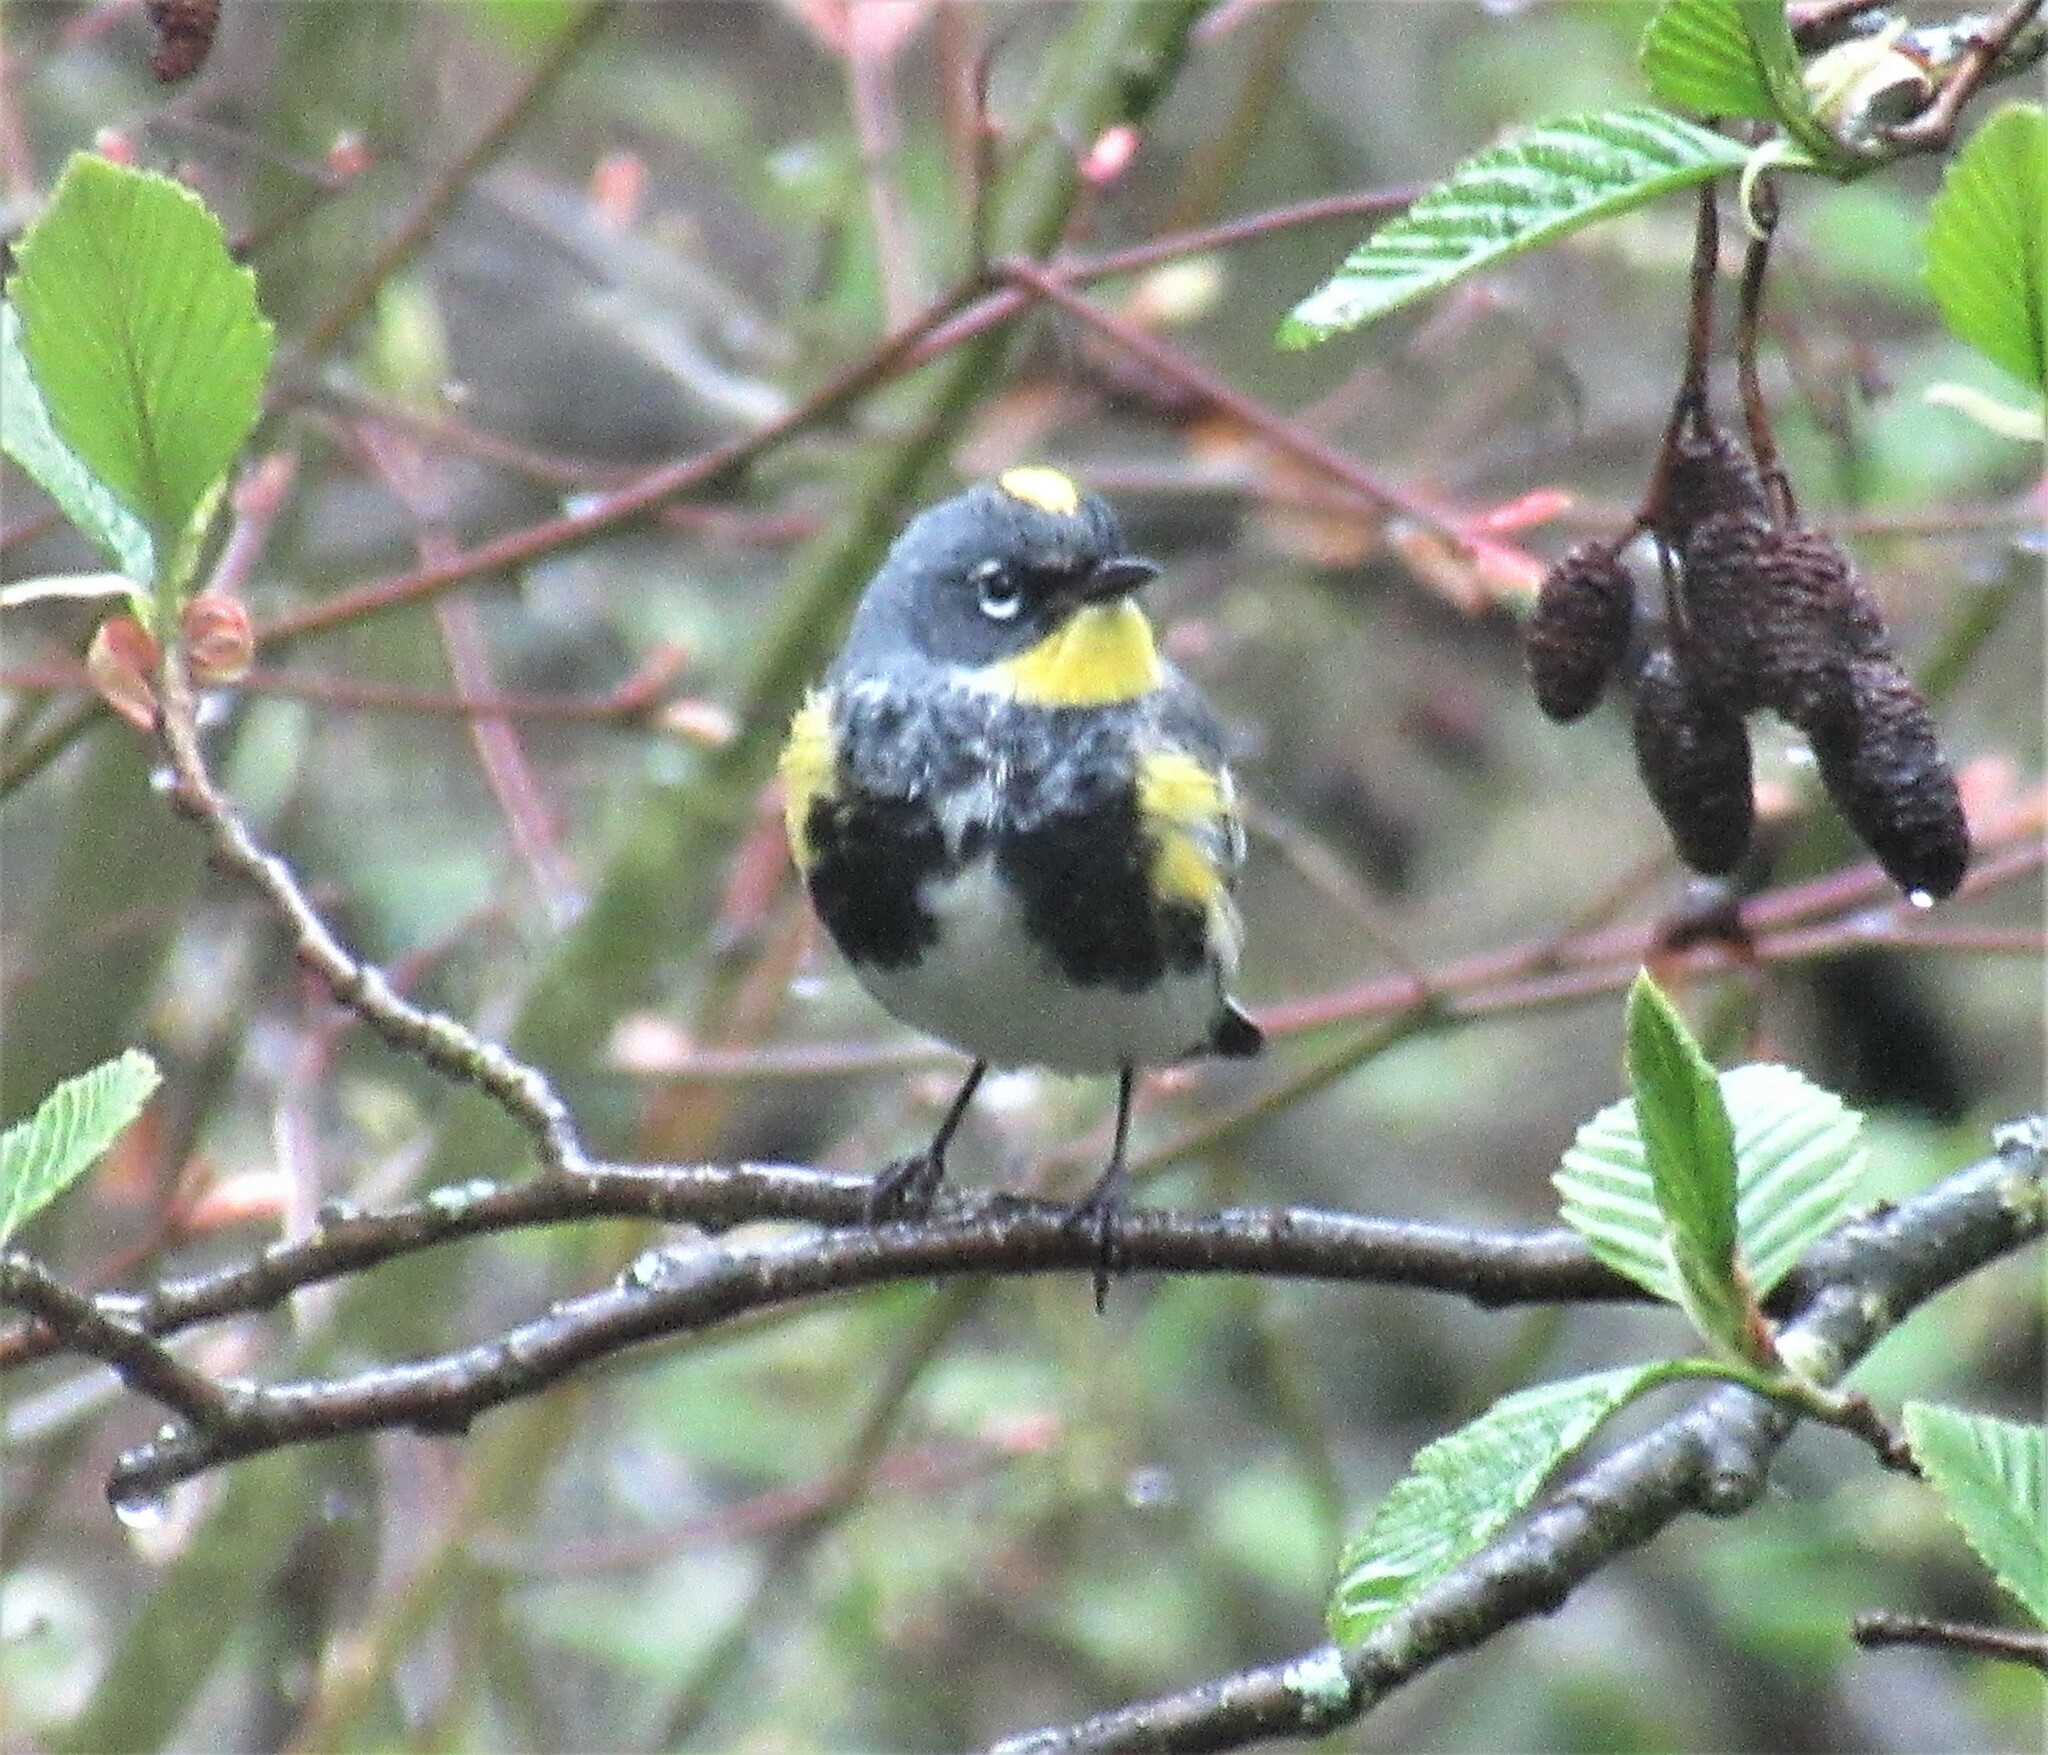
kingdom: Animalia
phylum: Chordata
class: Aves
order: Passeriformes
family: Parulidae
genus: Setophaga
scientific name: Setophaga auduboni
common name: Audubon's warbler
